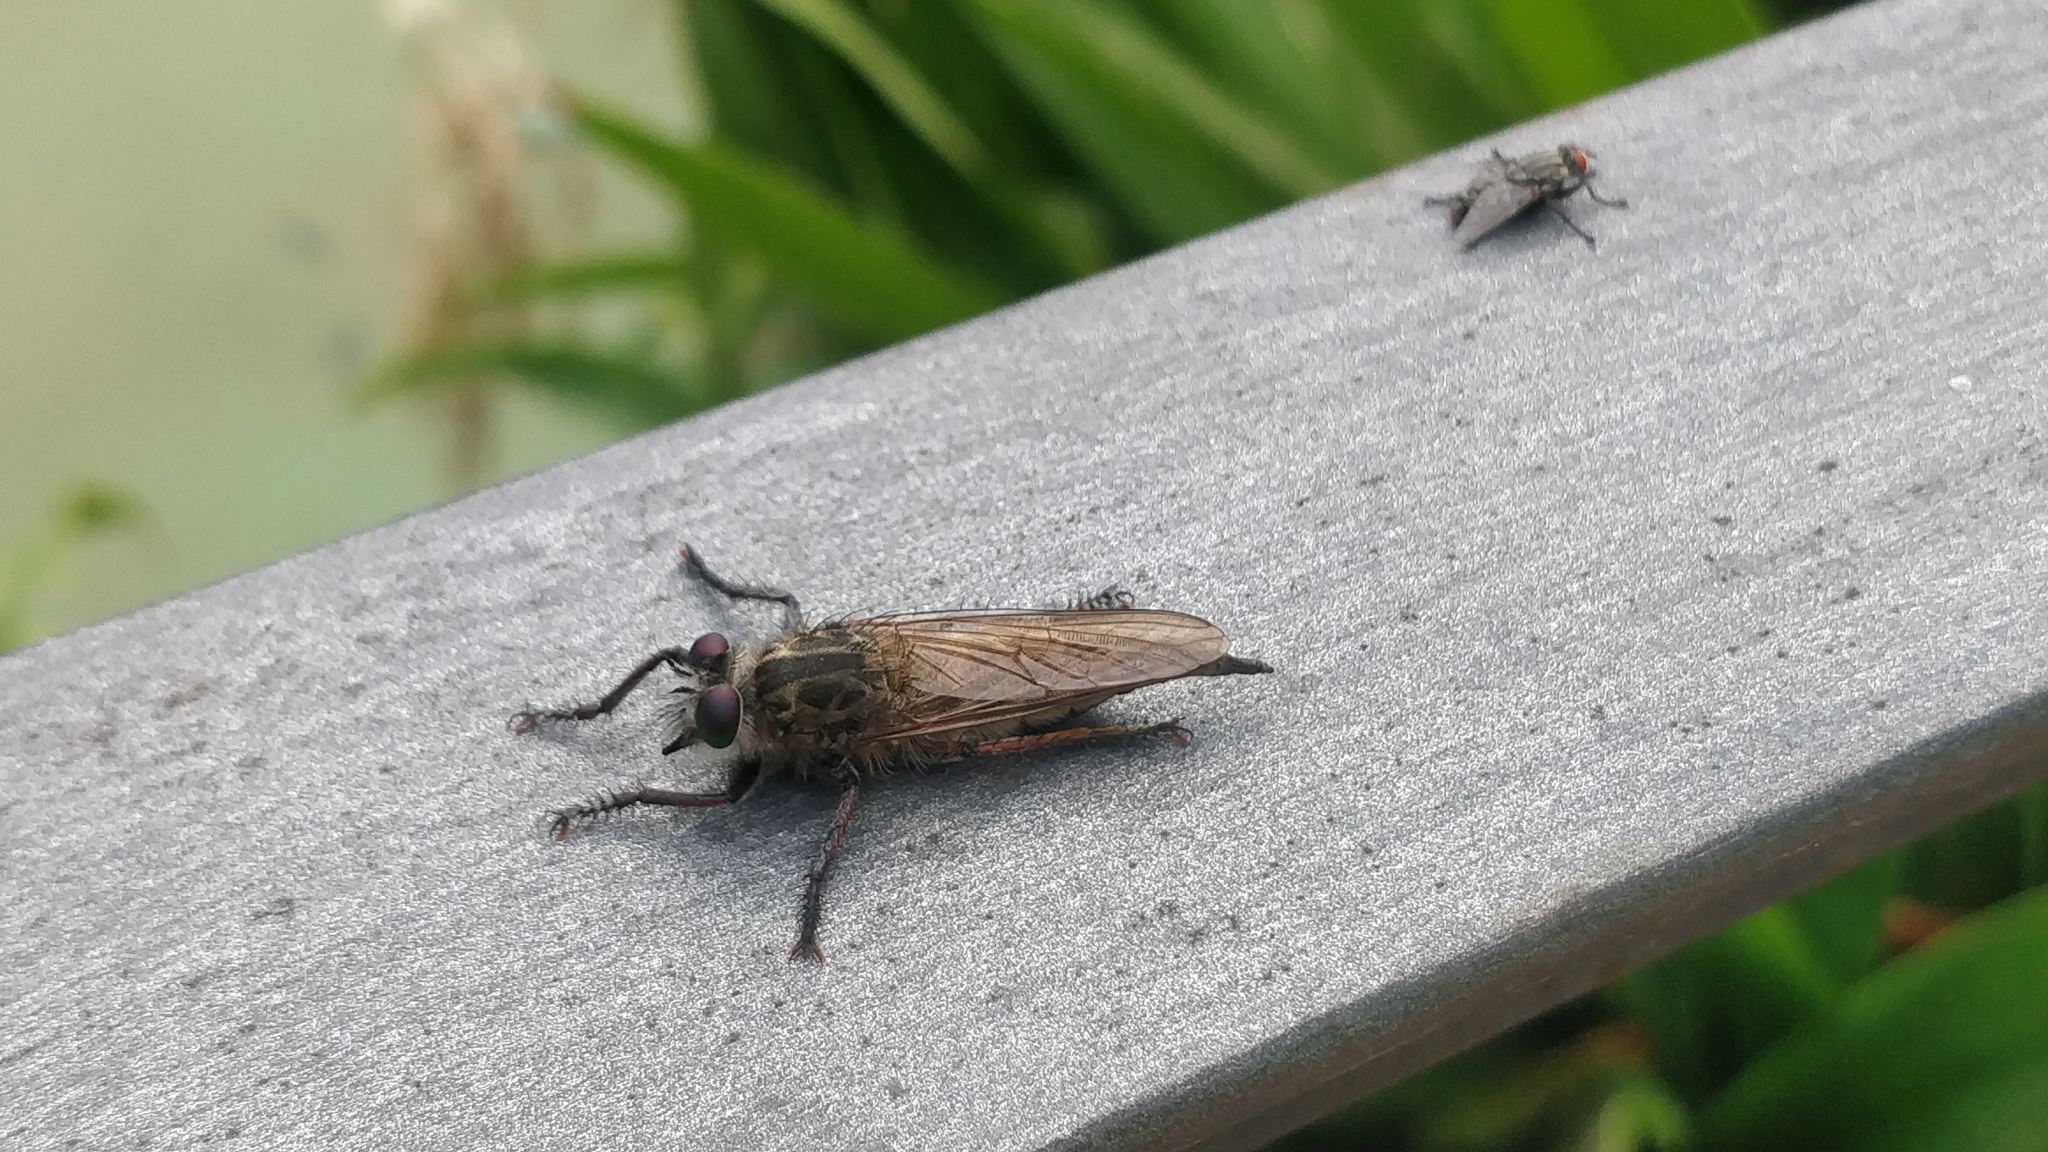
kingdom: Animalia
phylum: Arthropoda
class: Insecta
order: Diptera
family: Asilidae
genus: Promachus
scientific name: Promachus vexator
